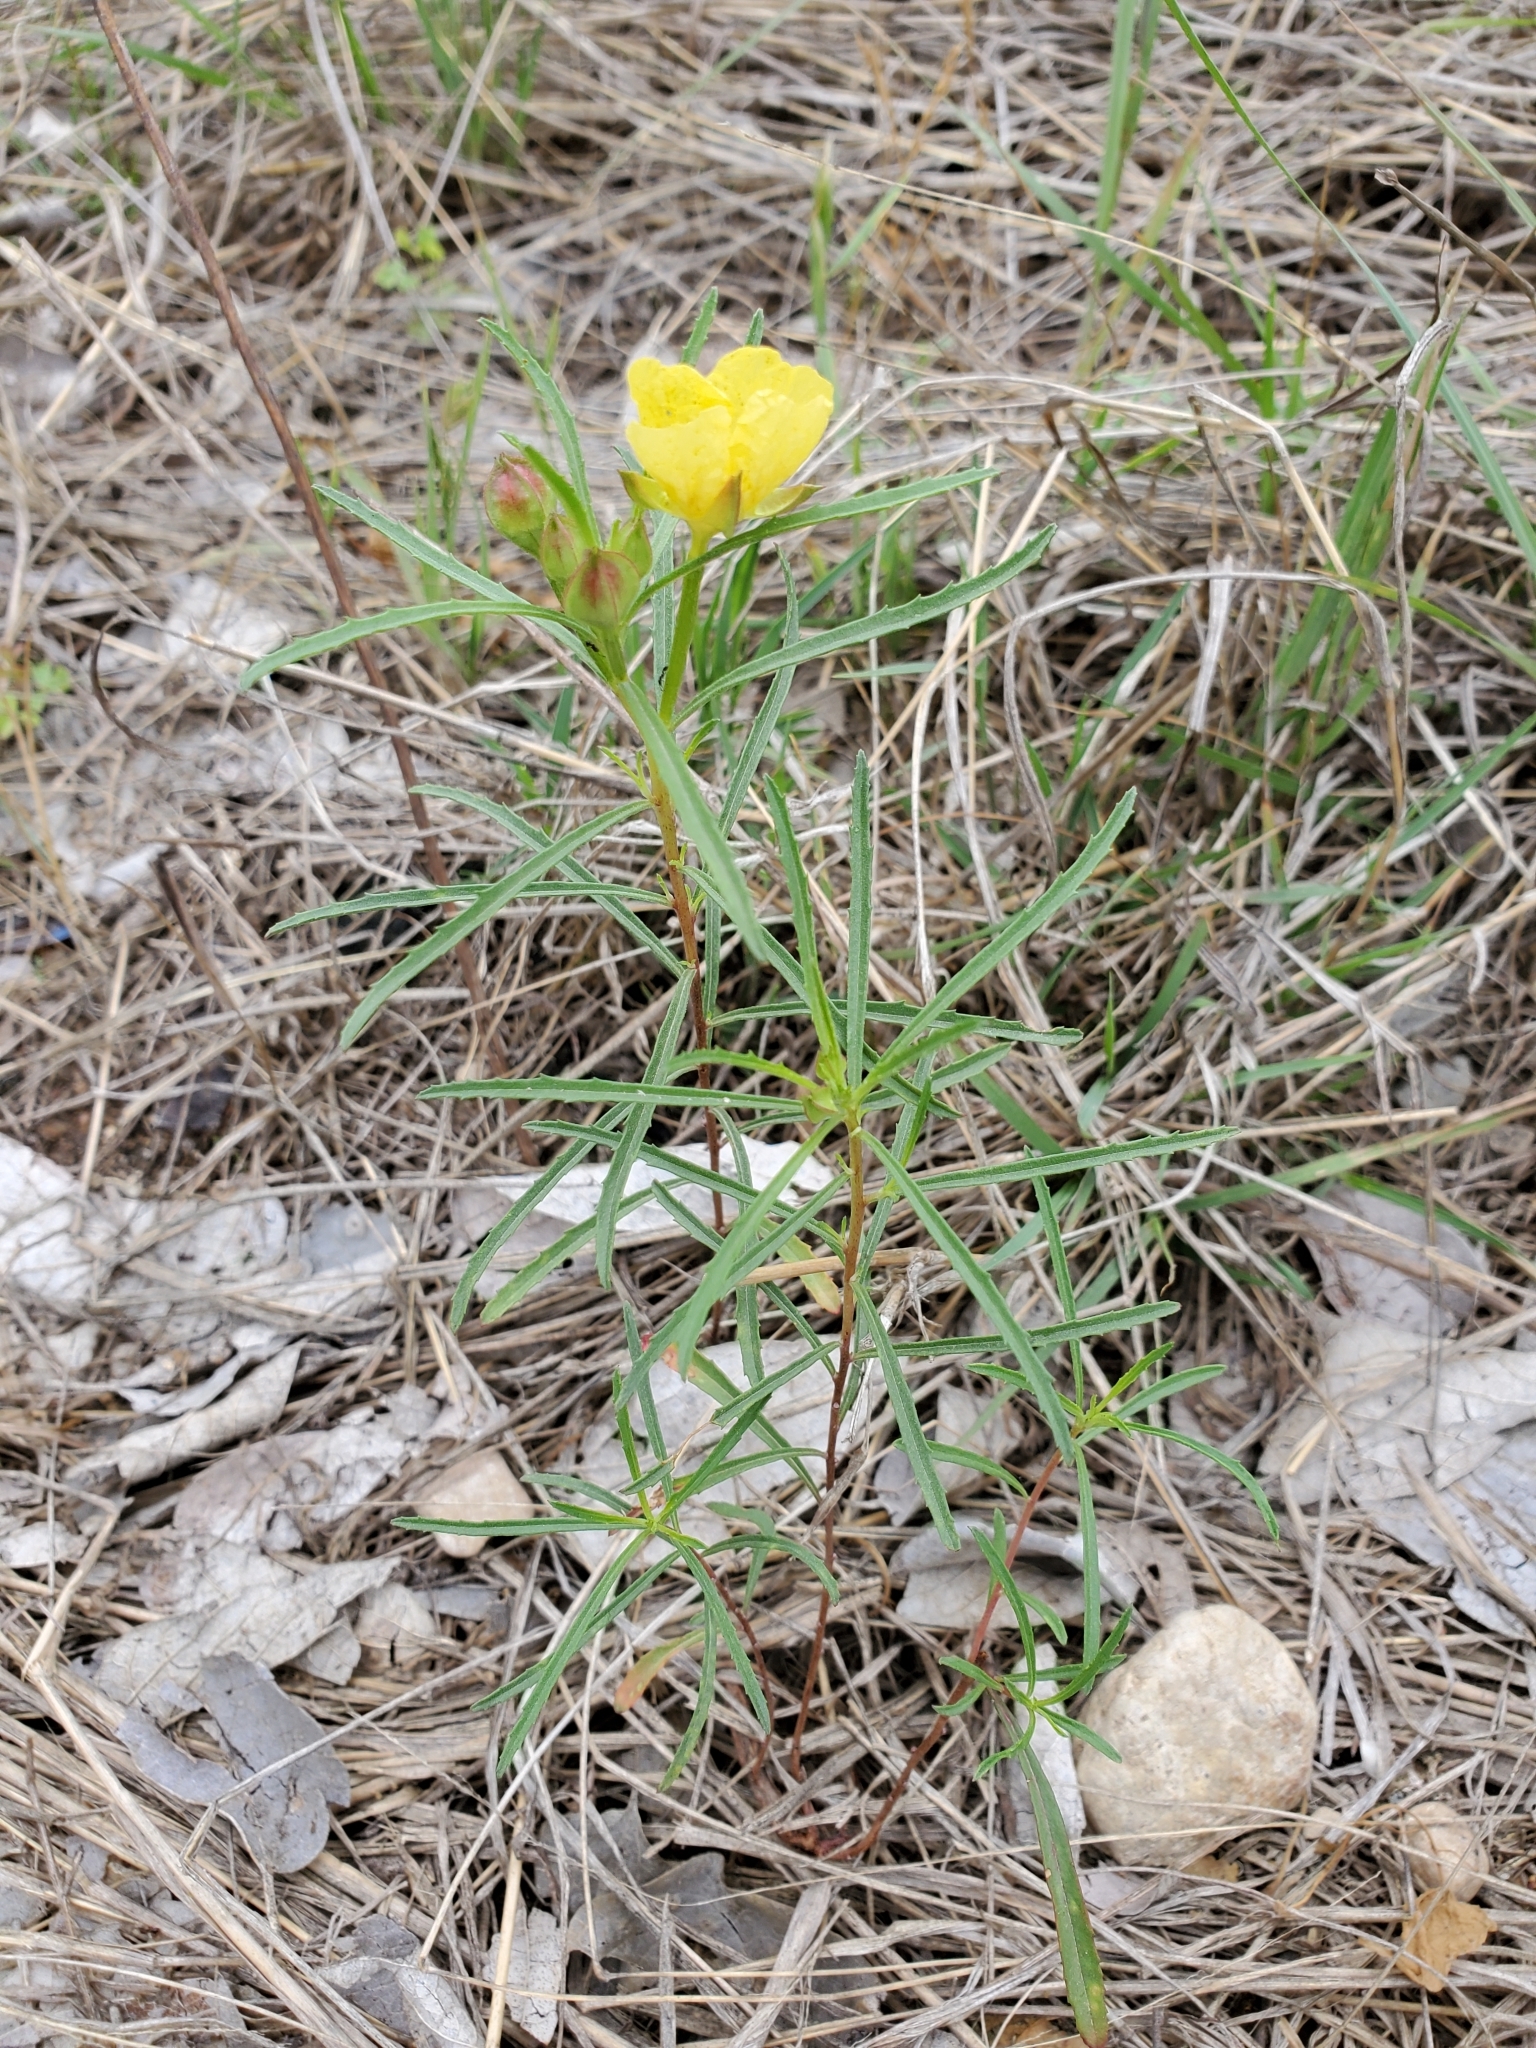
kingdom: Plantae
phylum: Tracheophyta
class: Magnoliopsida
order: Myrtales
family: Onagraceae
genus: Oenothera
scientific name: Oenothera serrulata
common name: Half-shrub calylophus
